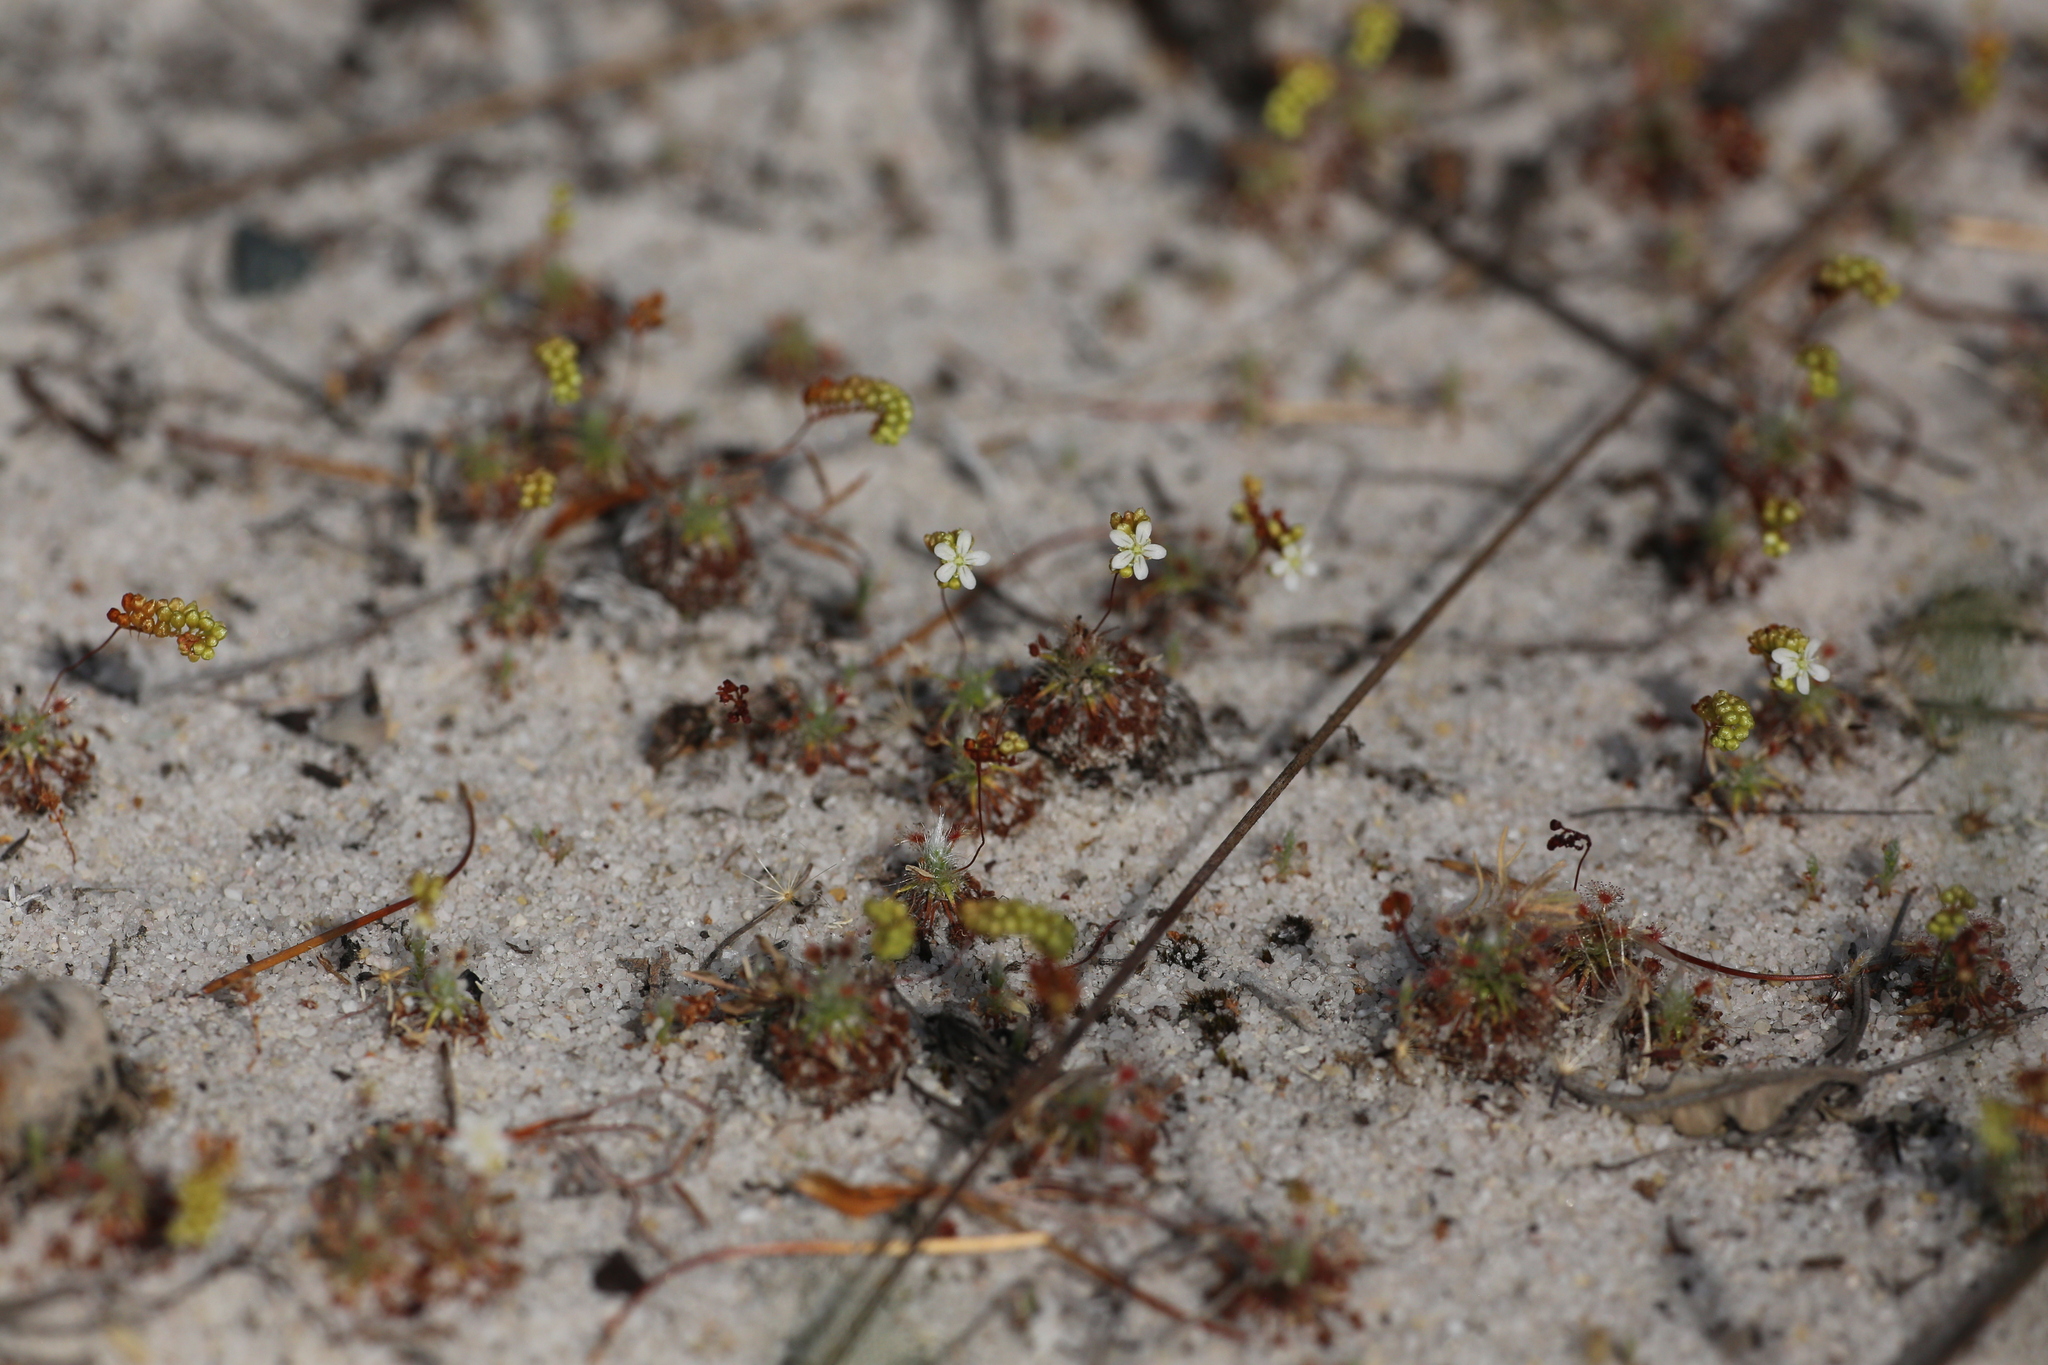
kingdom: Plantae
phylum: Tracheophyta
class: Magnoliopsida
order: Caryophyllales
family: Droseraceae
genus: Drosera
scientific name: Drosera paleacea
